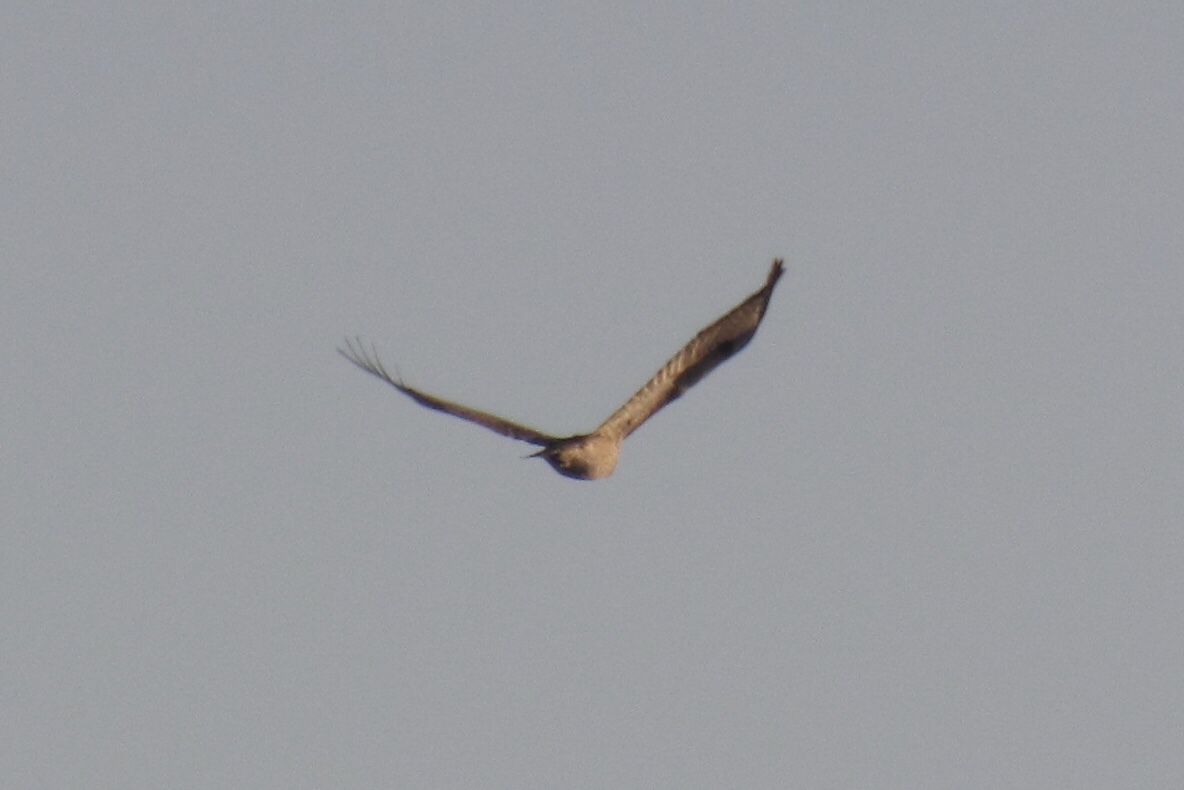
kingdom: Animalia
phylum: Chordata
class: Aves
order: Accipitriformes
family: Accipitridae
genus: Buteo
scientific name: Buteo jamaicensis
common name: Red-tailed hawk
